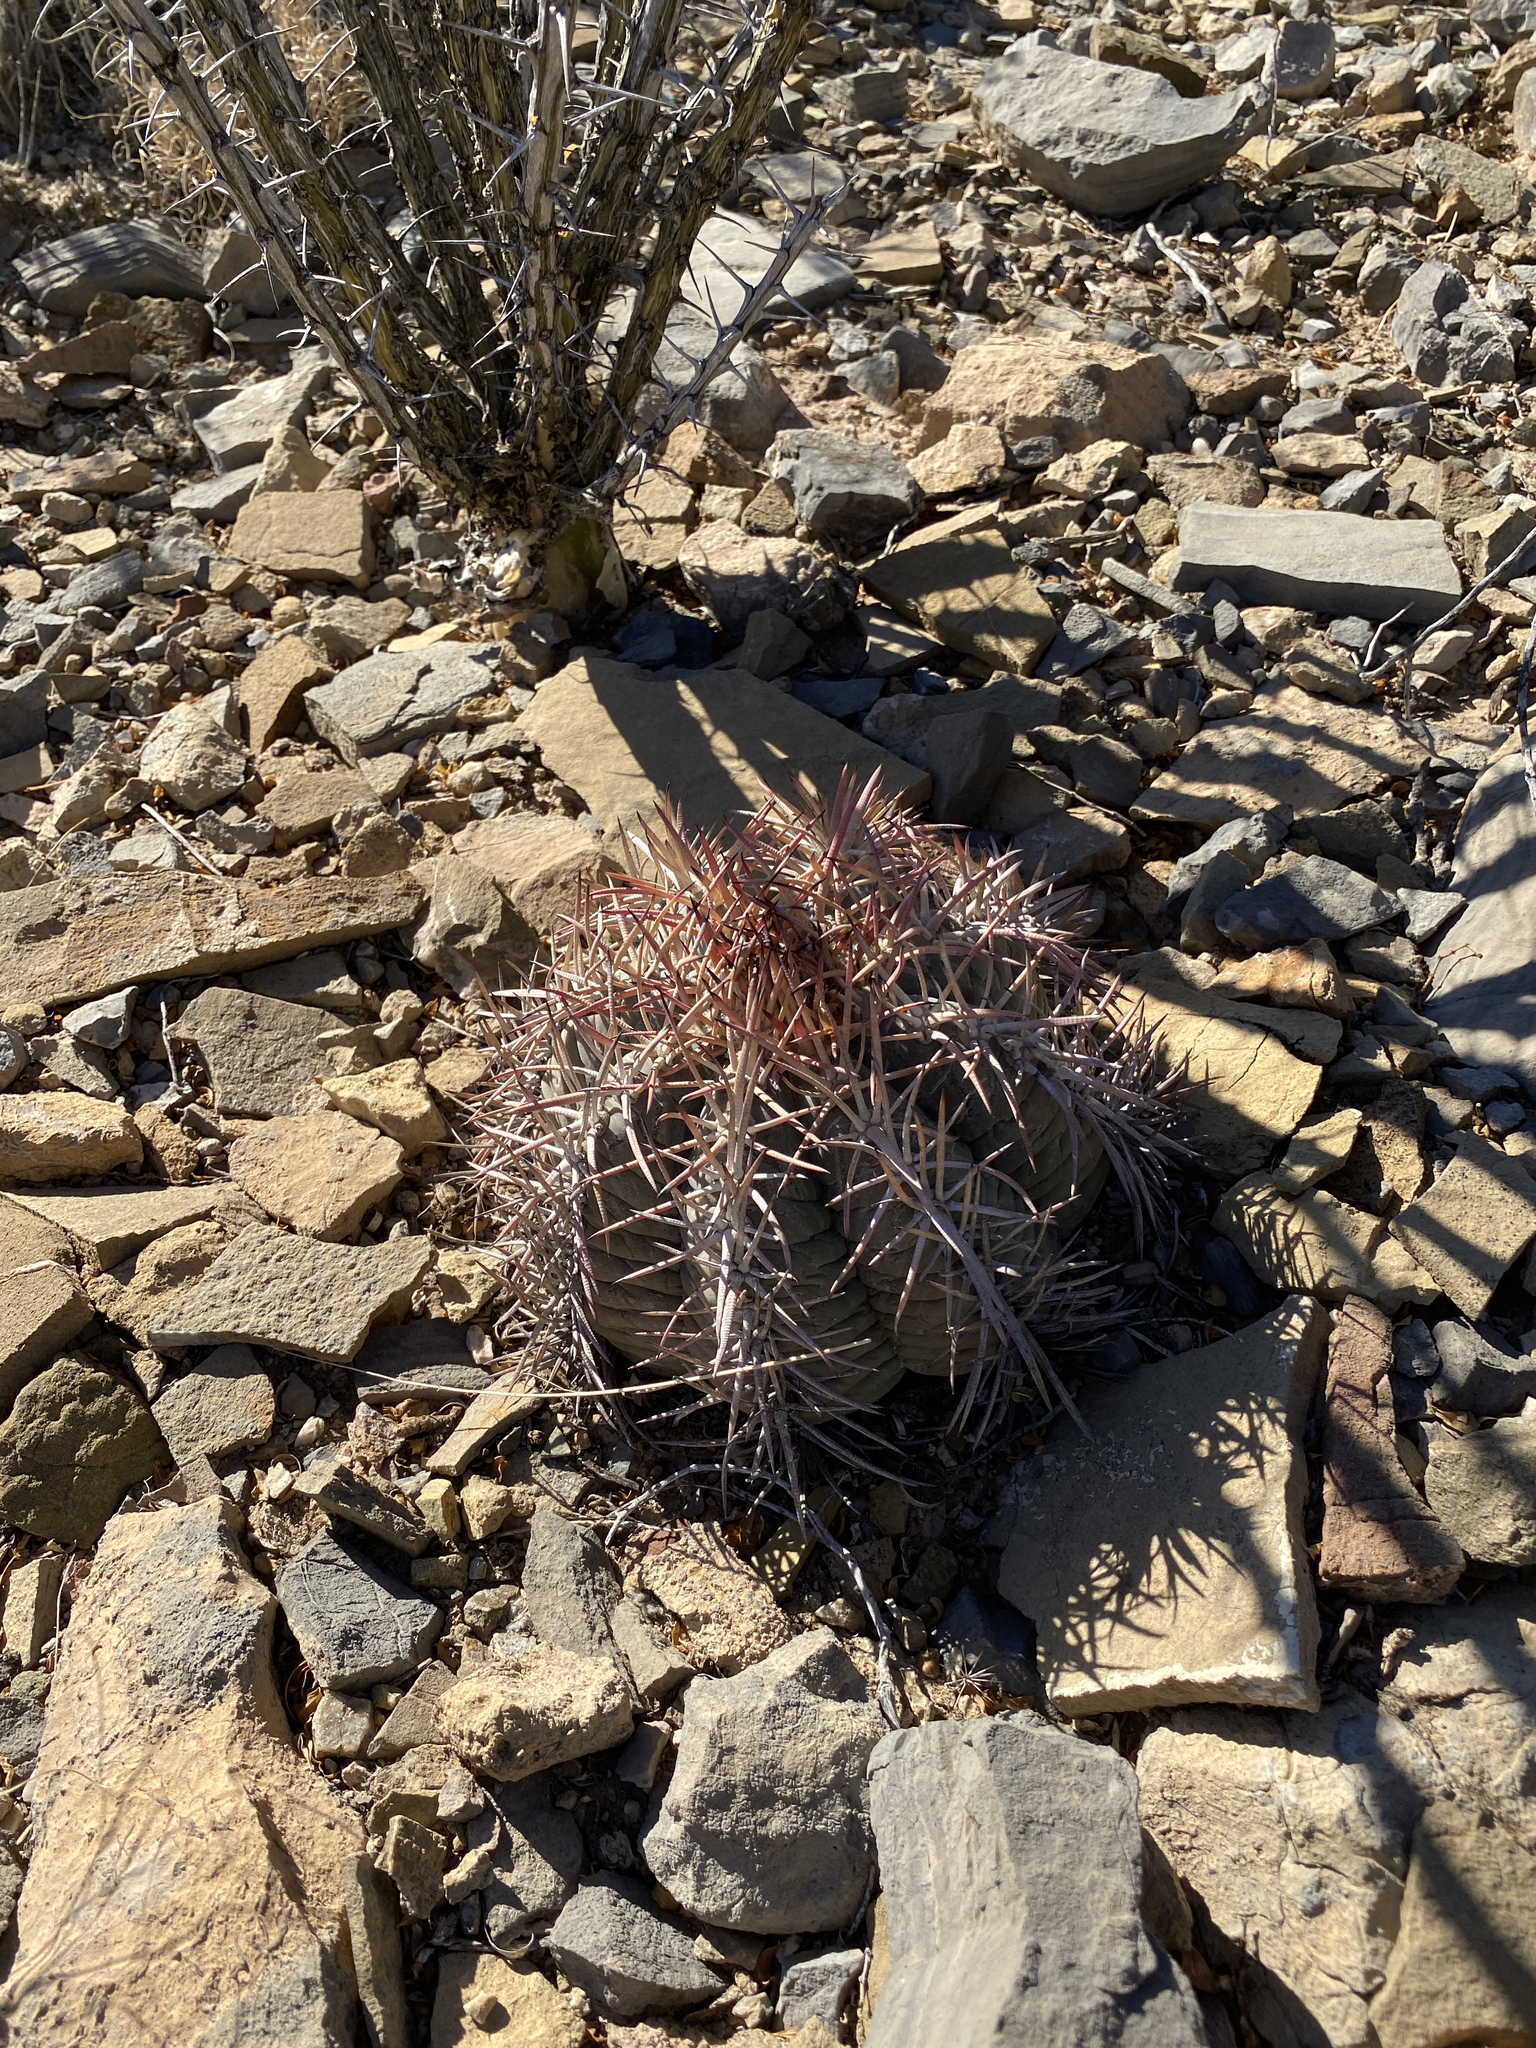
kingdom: Plantae
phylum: Tracheophyta
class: Magnoliopsida
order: Caryophyllales
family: Cactaceae
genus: Echinocactus
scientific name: Echinocactus horizonthalonius
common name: Devilshead
